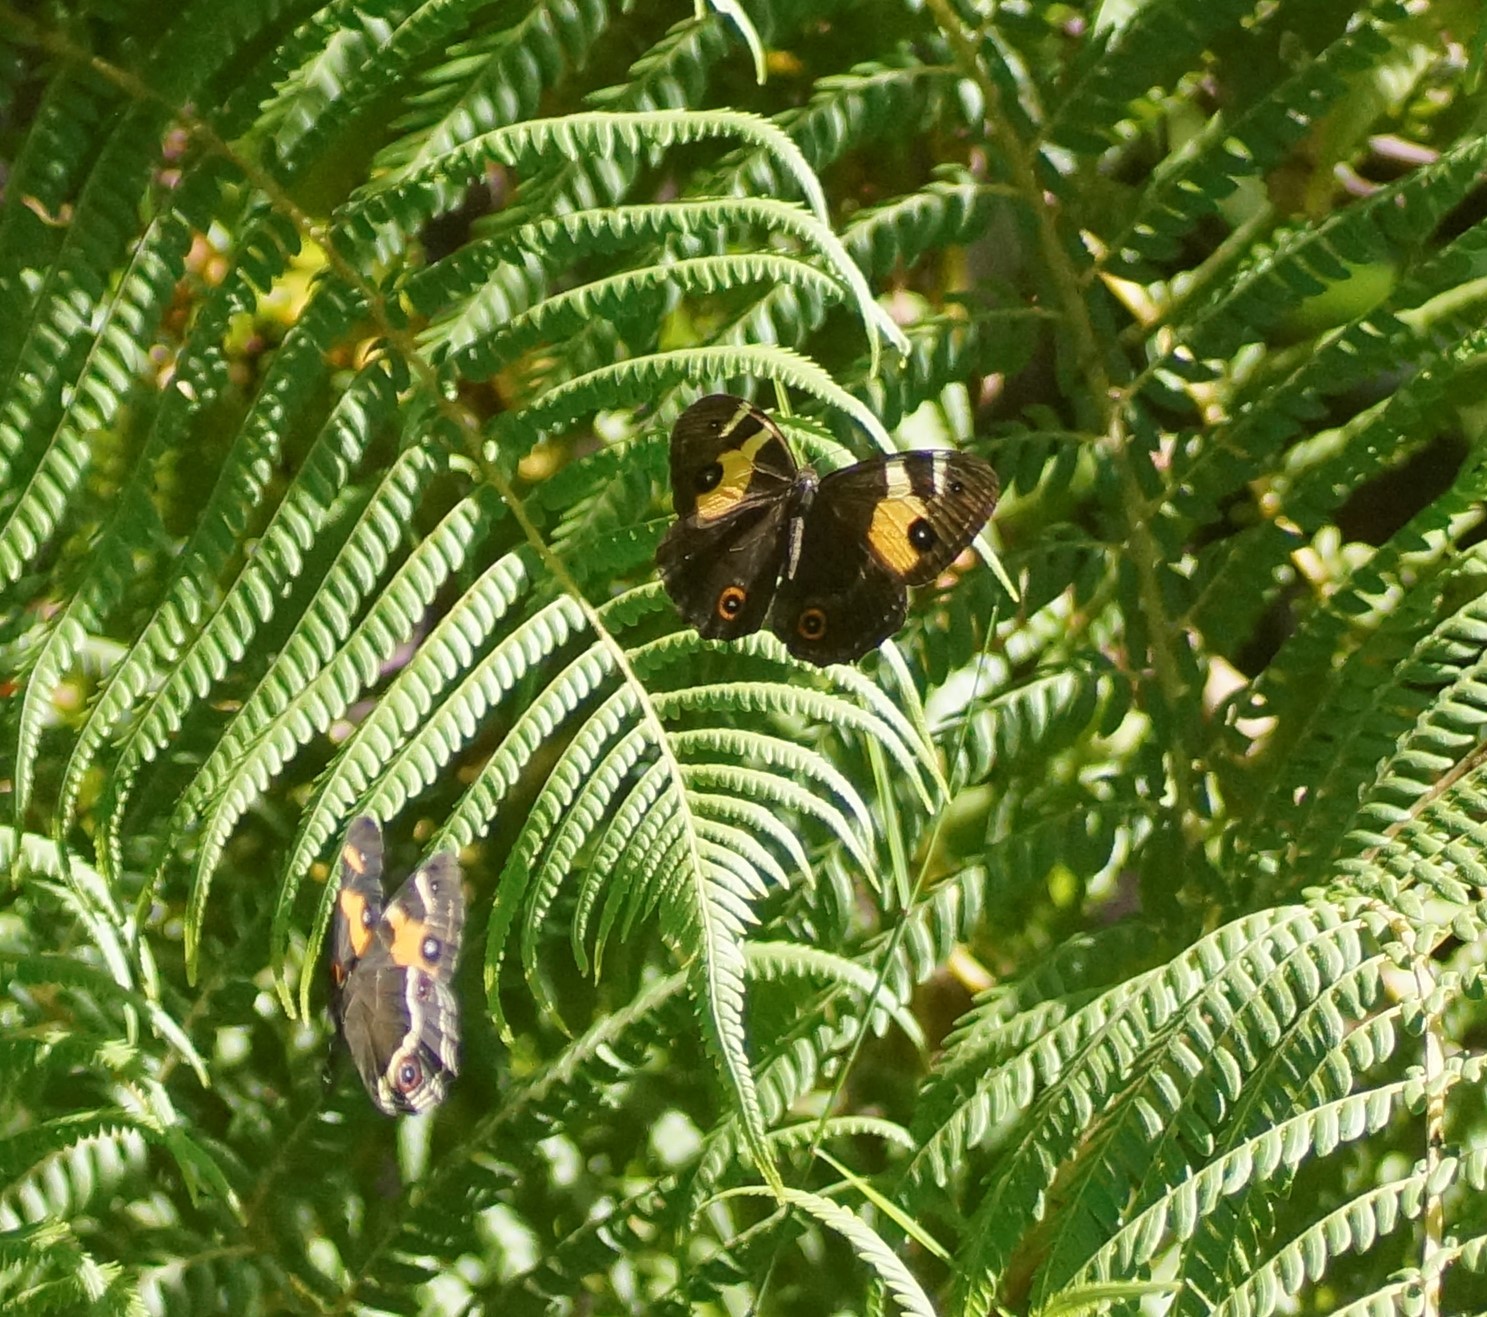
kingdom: Animalia
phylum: Arthropoda
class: Insecta
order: Lepidoptera
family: Nymphalidae
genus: Tisiphone
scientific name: Tisiphone abeona
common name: Swordgrass brown
